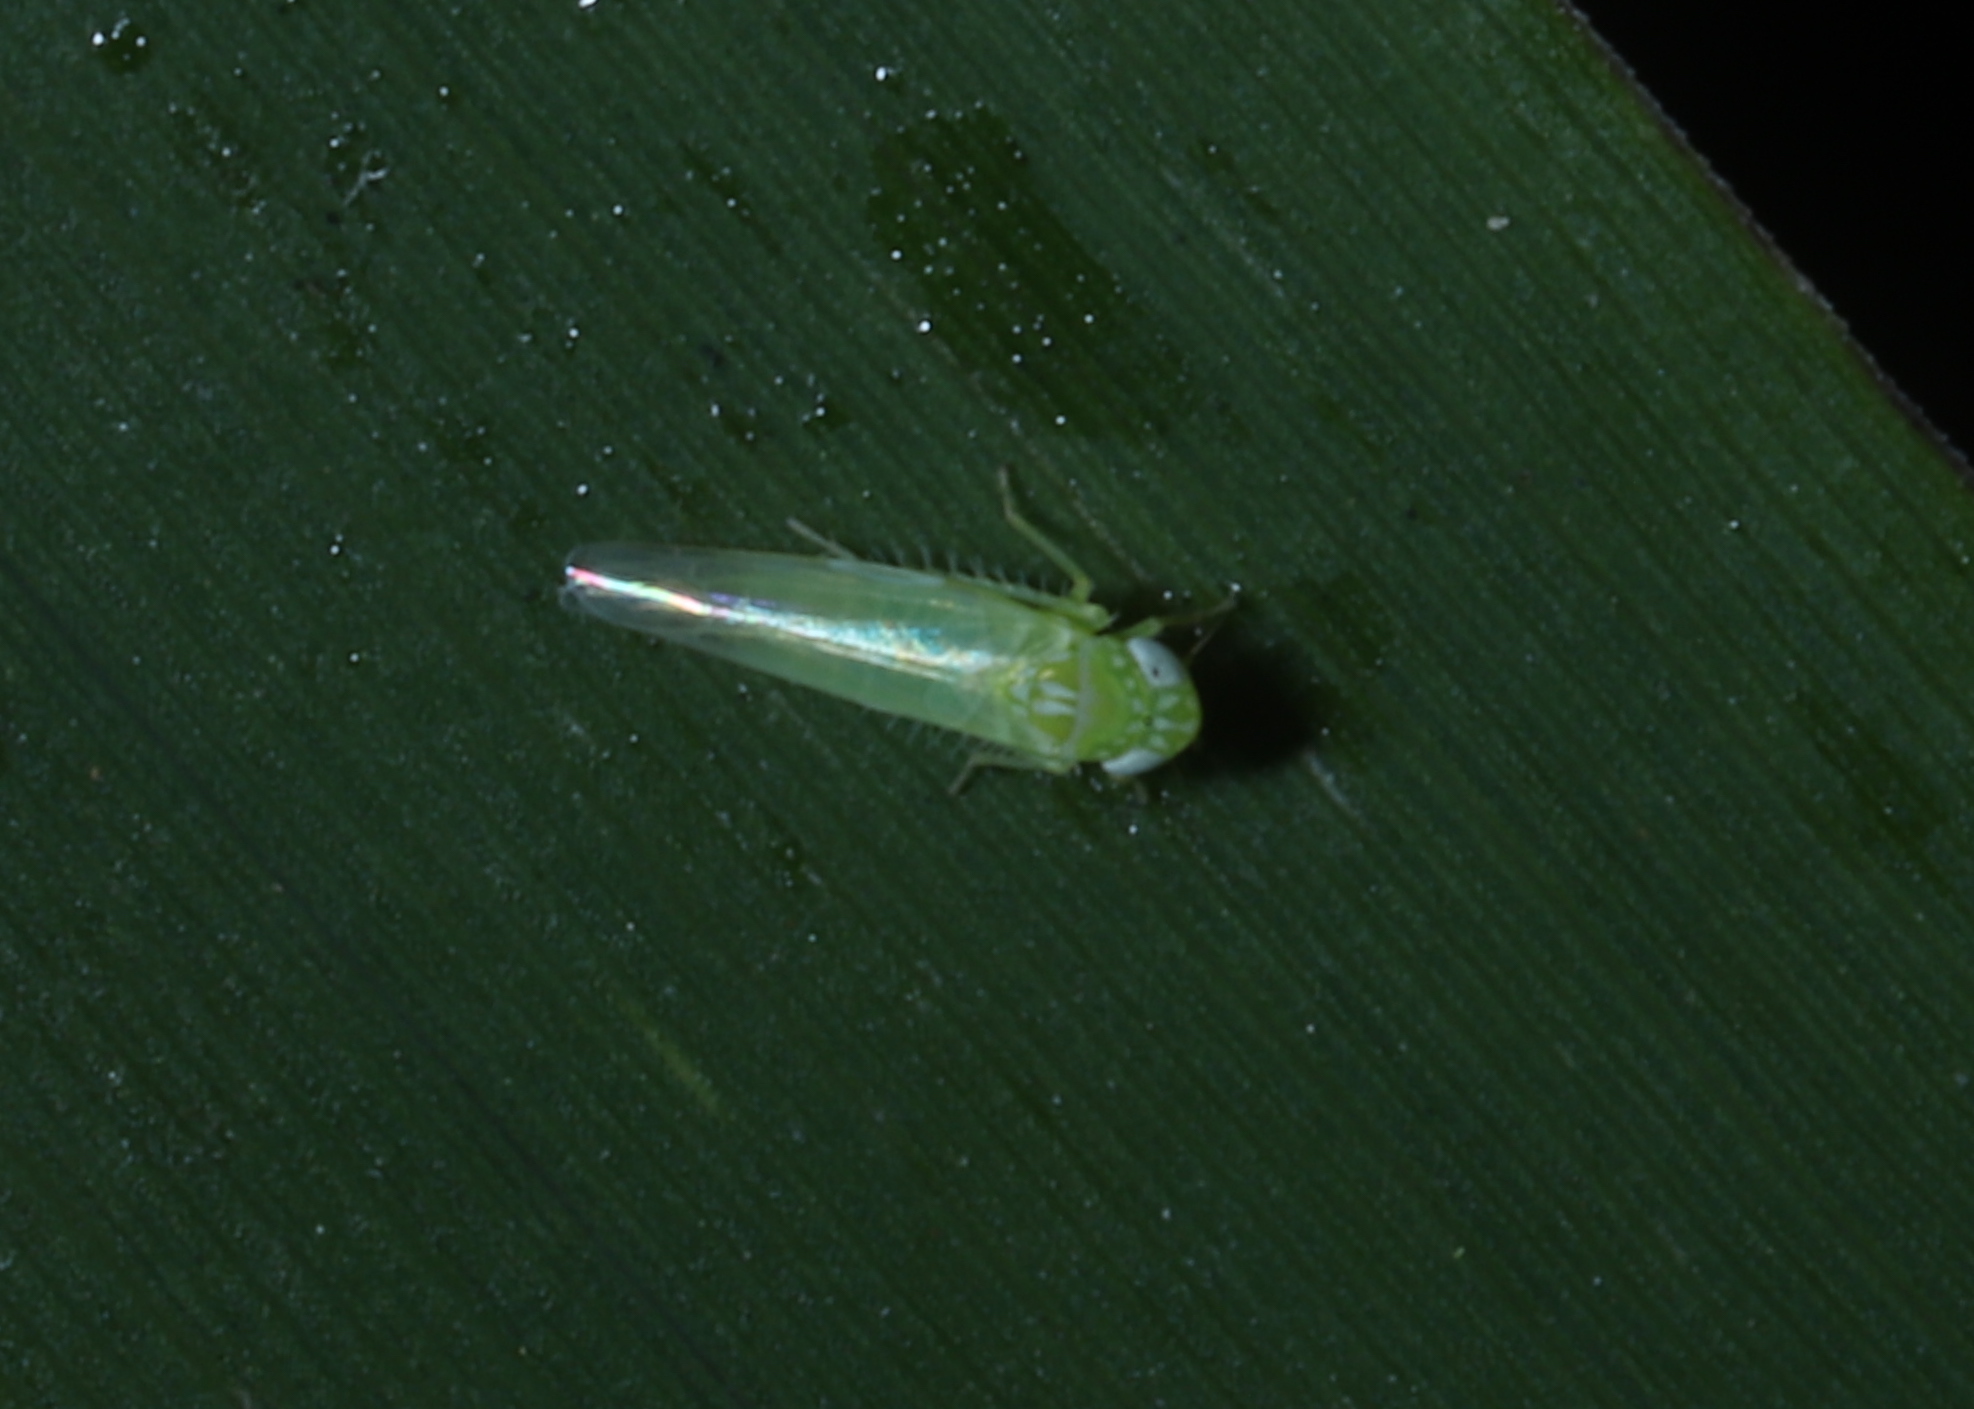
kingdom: Animalia
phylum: Arthropoda
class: Insecta
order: Hemiptera
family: Cicadellidae
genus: Empoasca
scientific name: Empoasca fabae
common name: Potato leafhopper
